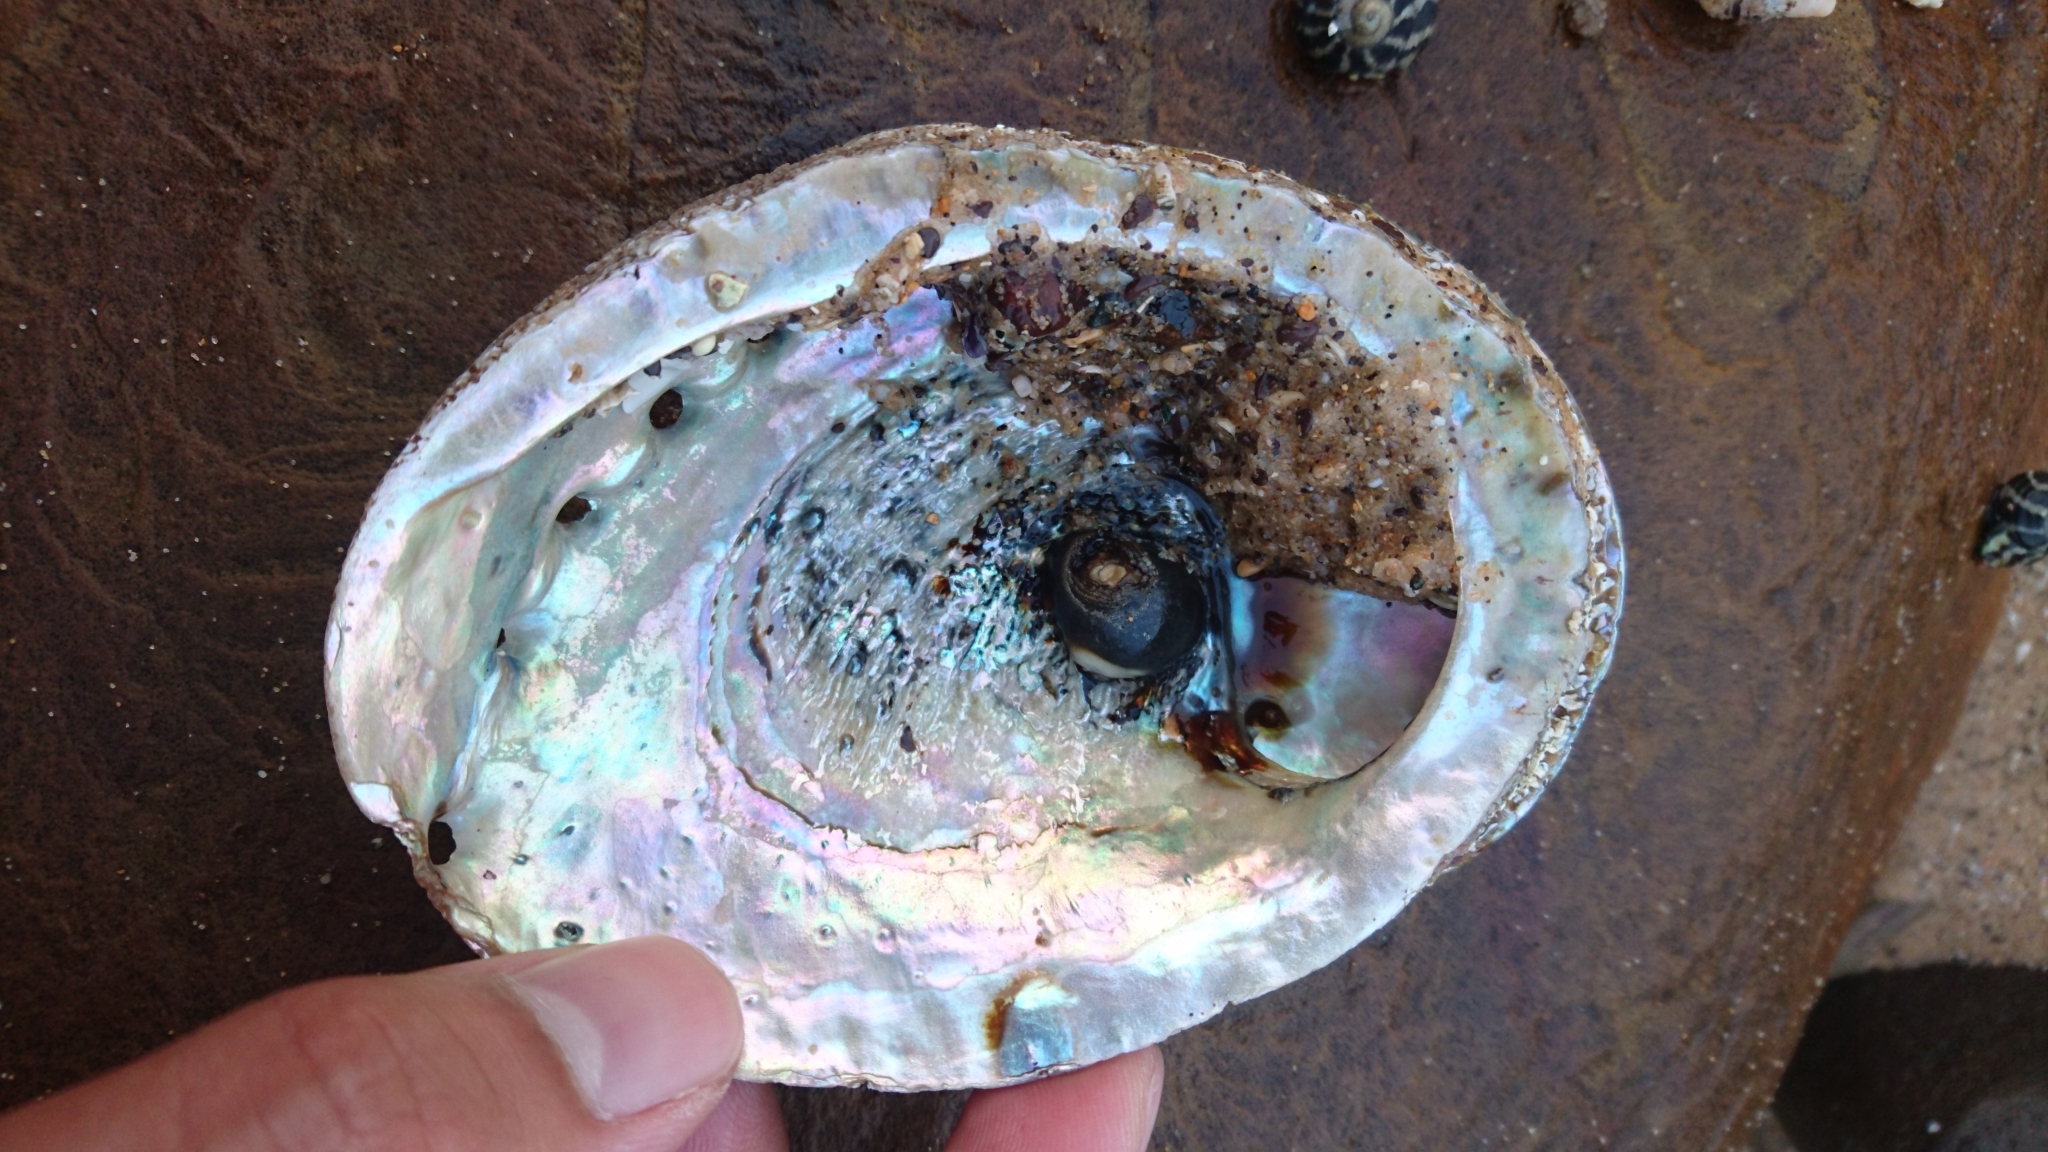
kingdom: Animalia
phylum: Mollusca
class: Gastropoda
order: Lepetellida
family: Haliotidae
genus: Haliotis
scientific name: Haliotis rubra
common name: Blacklip abalone
